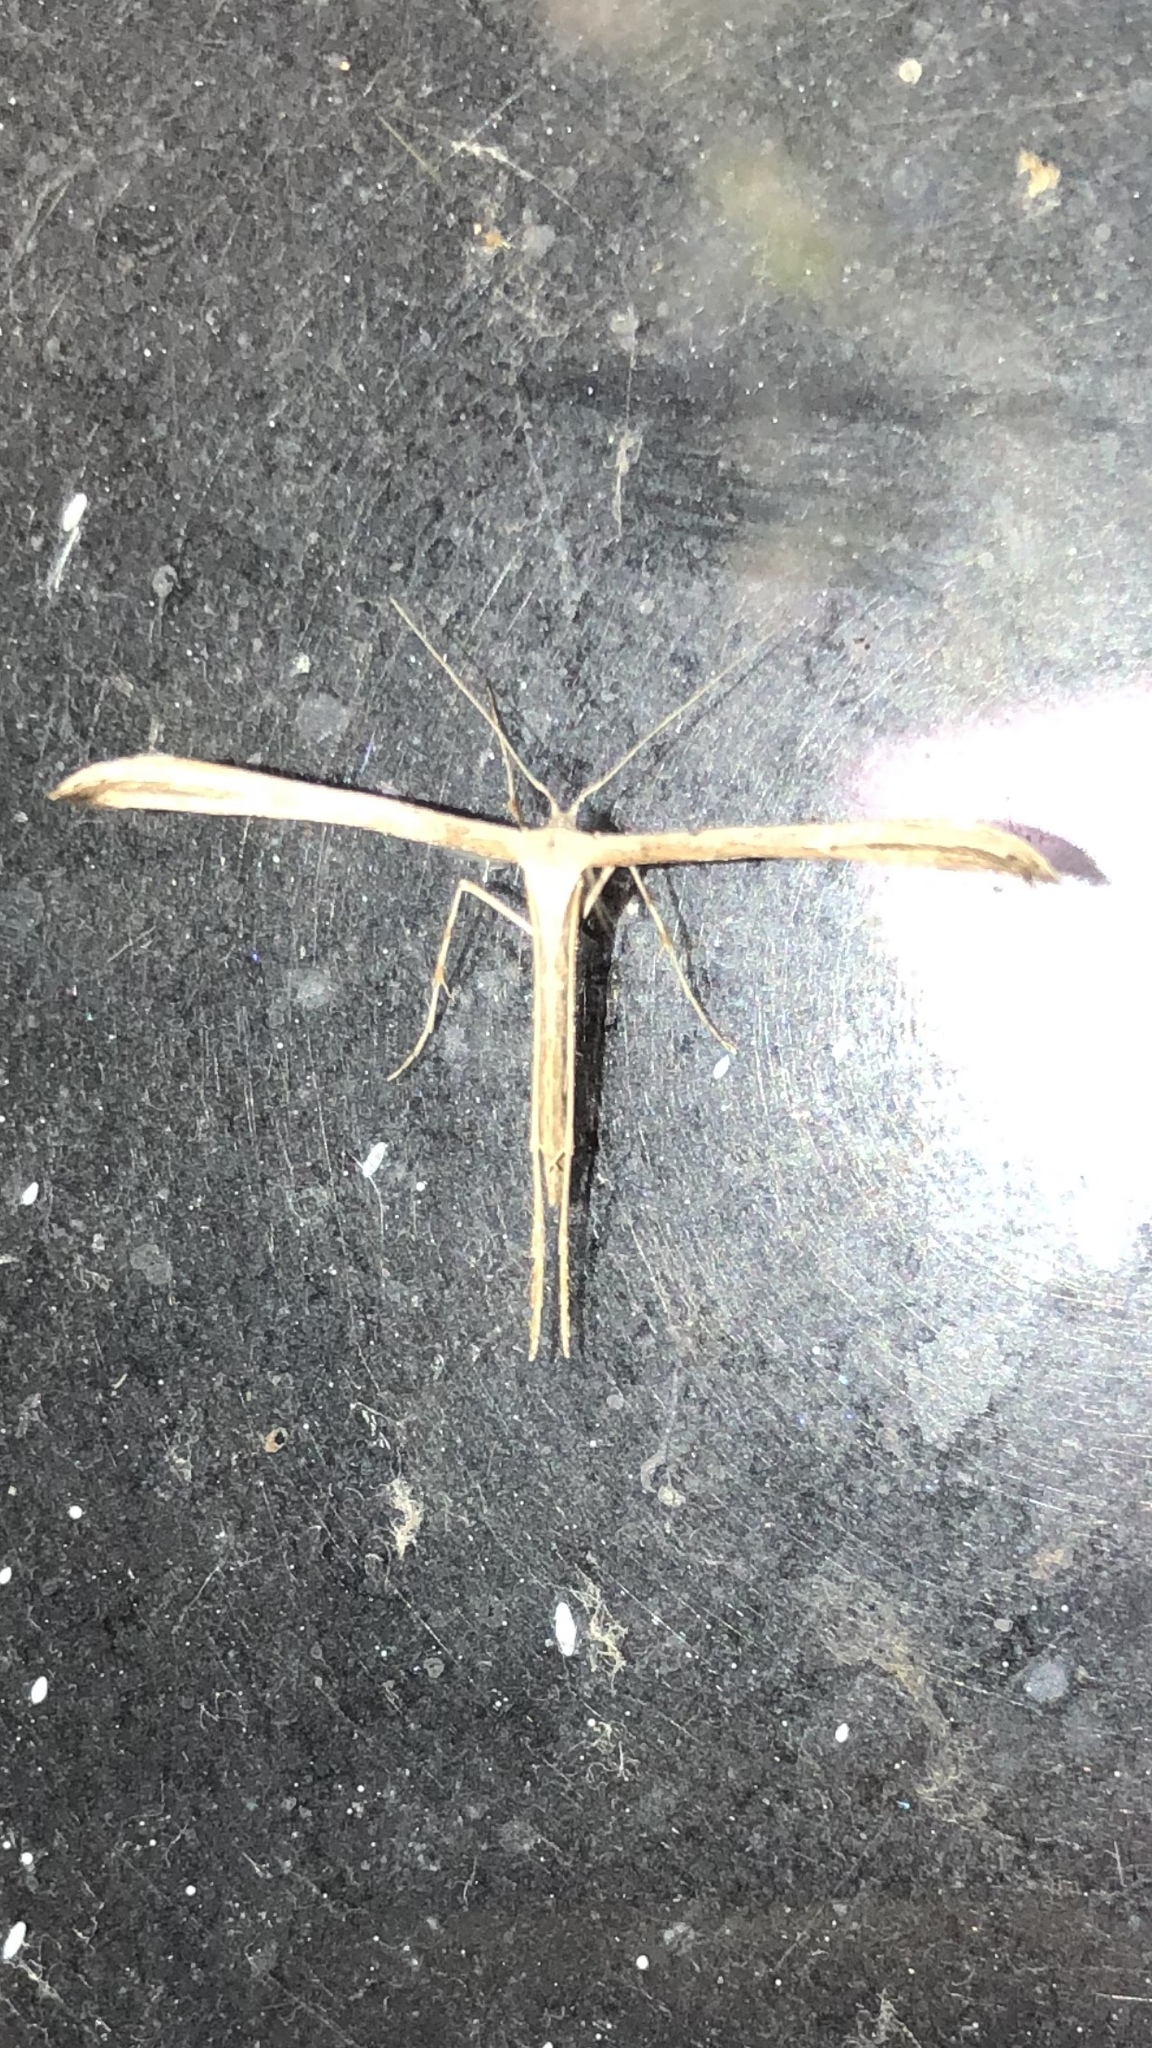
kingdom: Animalia
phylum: Arthropoda
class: Insecta
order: Lepidoptera
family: Pterophoridae
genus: Emmelina
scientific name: Emmelina monodactyla
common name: Common plume
